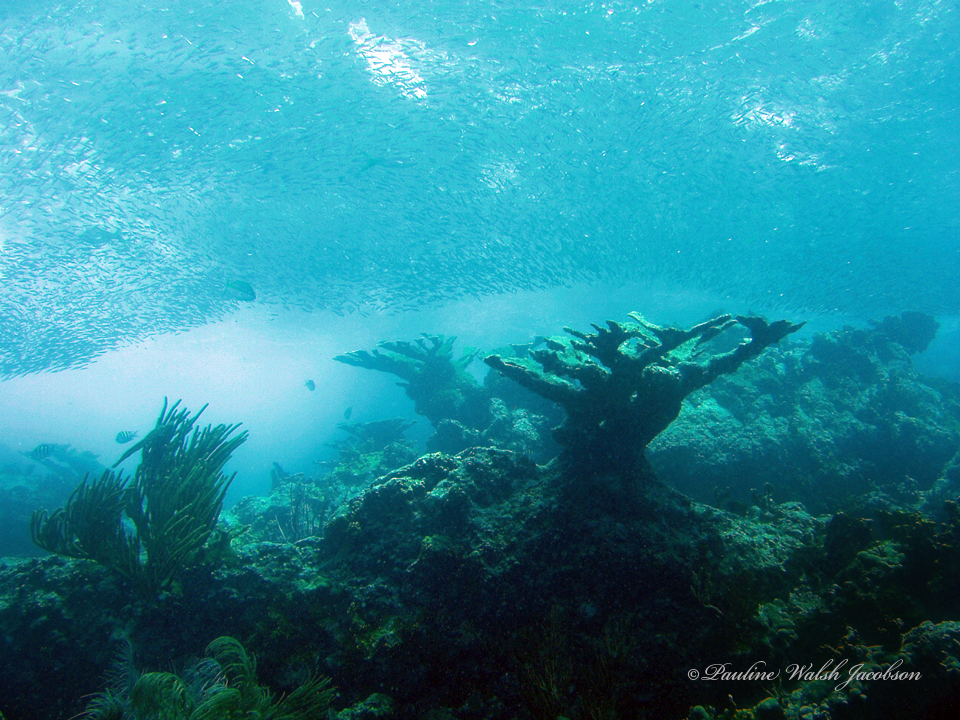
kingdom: Animalia
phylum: Cnidaria
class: Anthozoa
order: Scleractinia
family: Acroporidae
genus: Acropora
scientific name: Acropora palmata
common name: Elkhorn coral
